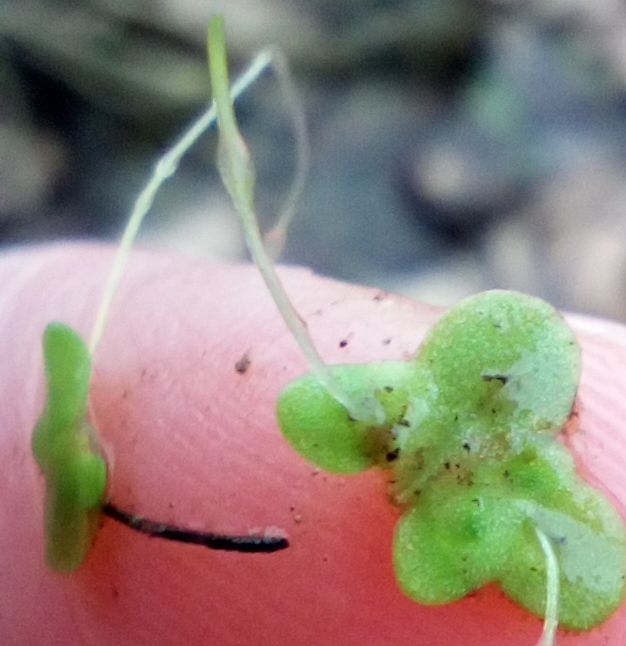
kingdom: Plantae
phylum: Tracheophyta
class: Liliopsida
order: Alismatales
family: Araceae
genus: Lemna
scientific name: Lemna minor
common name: Common duckweed
